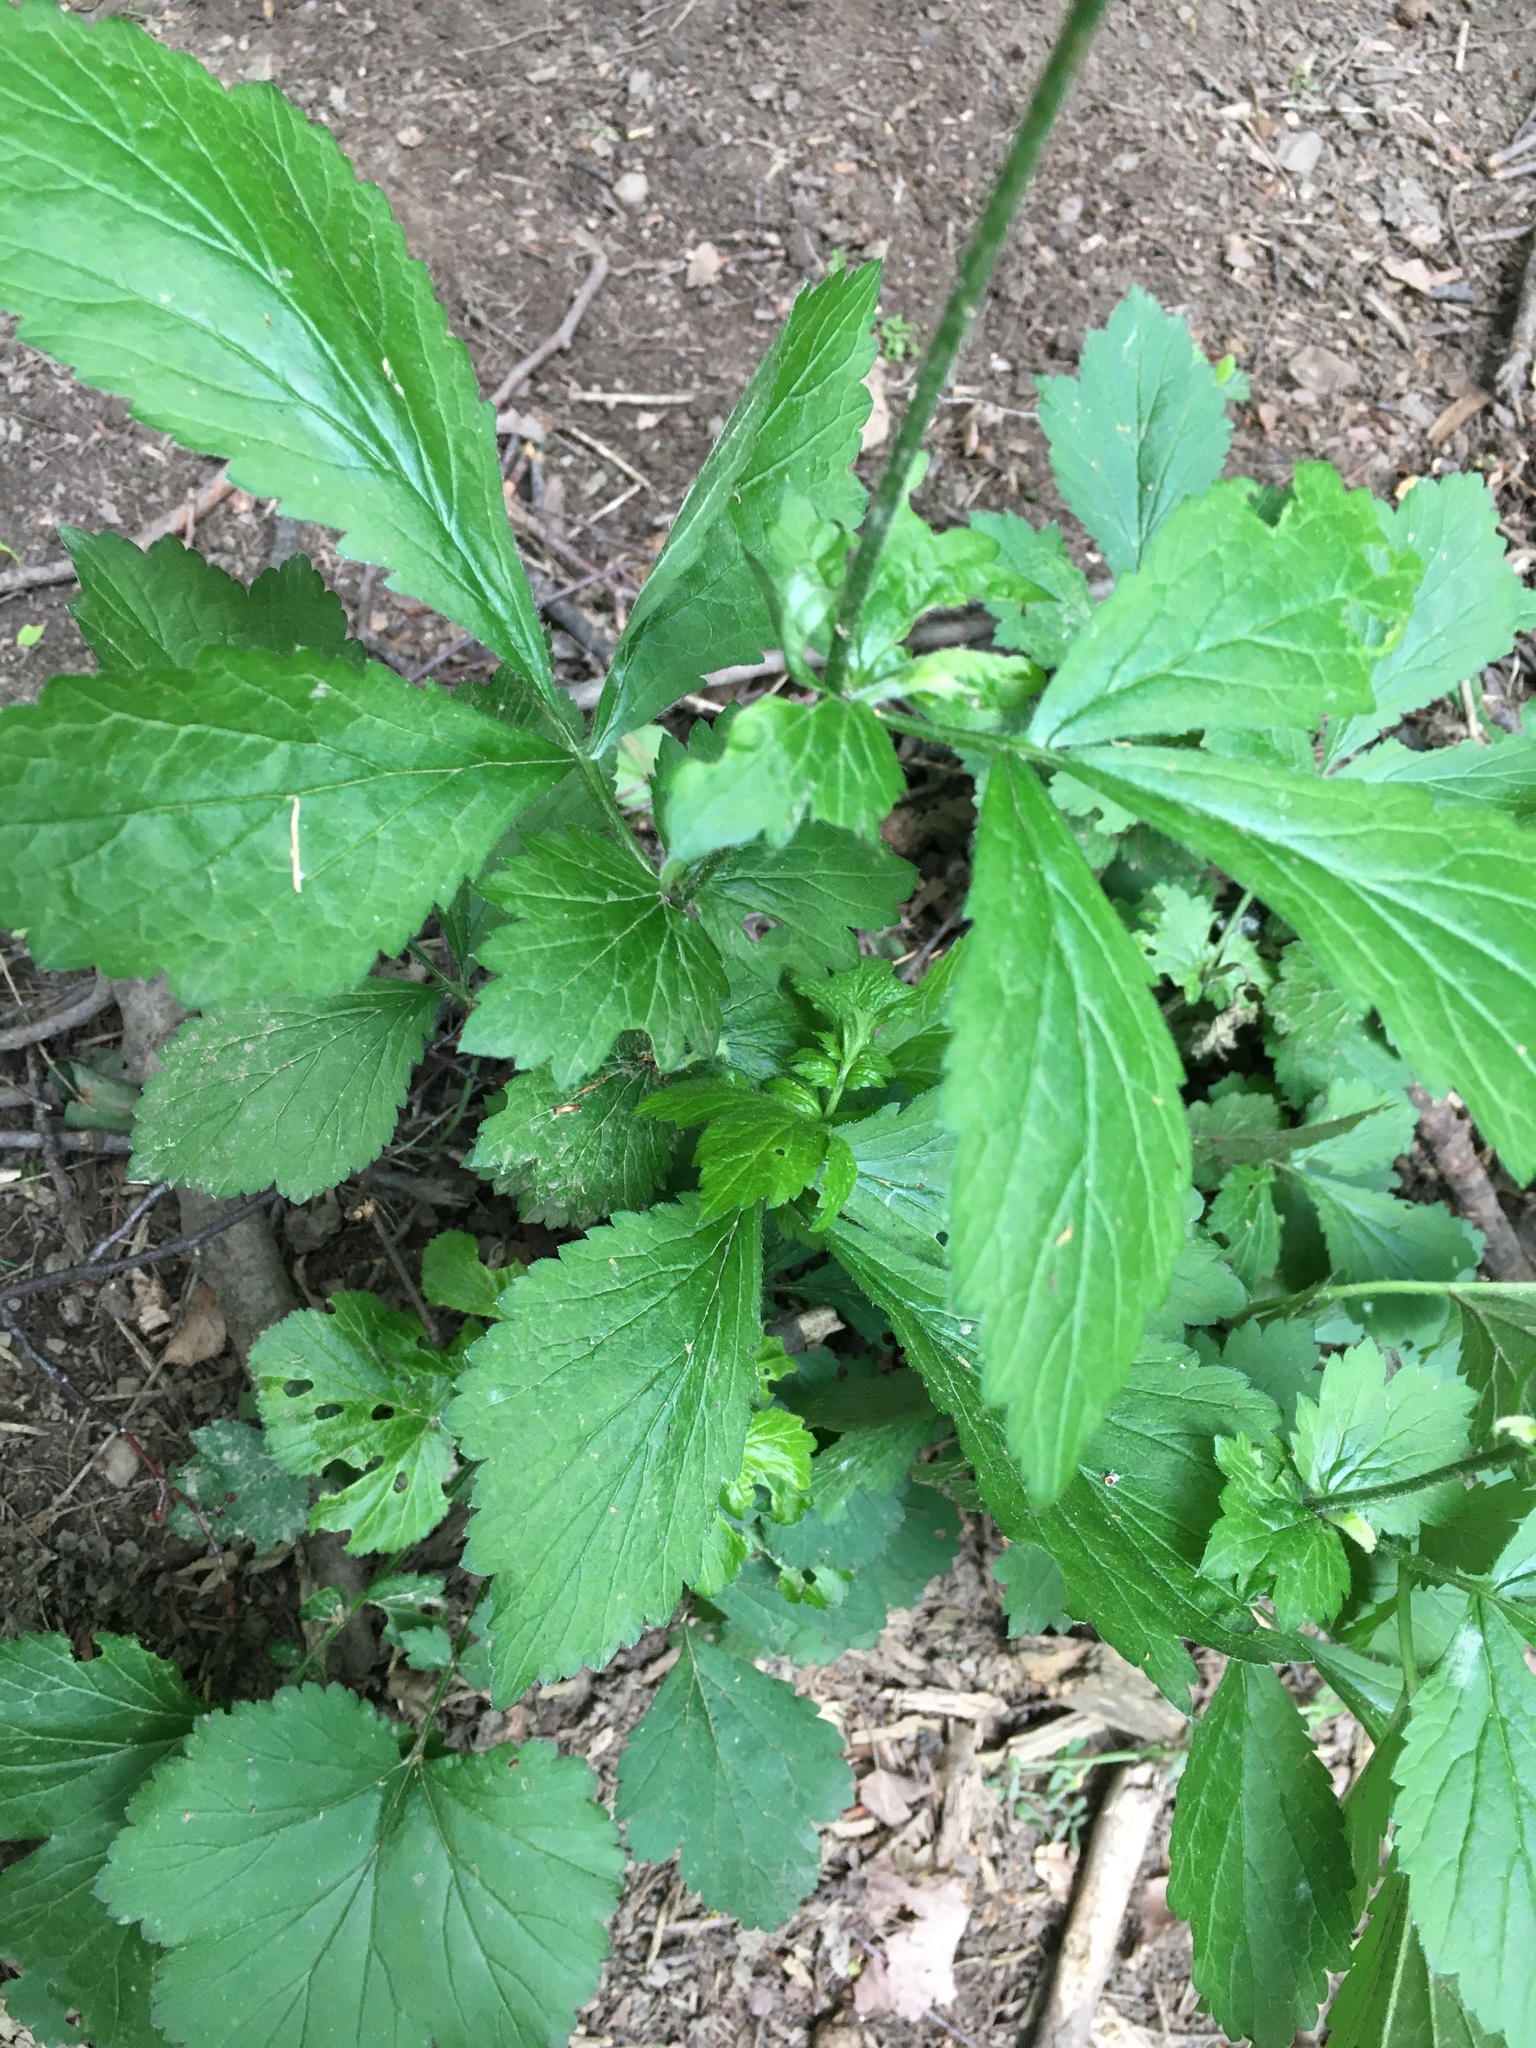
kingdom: Plantae
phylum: Tracheophyta
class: Magnoliopsida
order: Rosales
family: Rosaceae
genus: Geum
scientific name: Geum urbanum
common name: Wood avens
